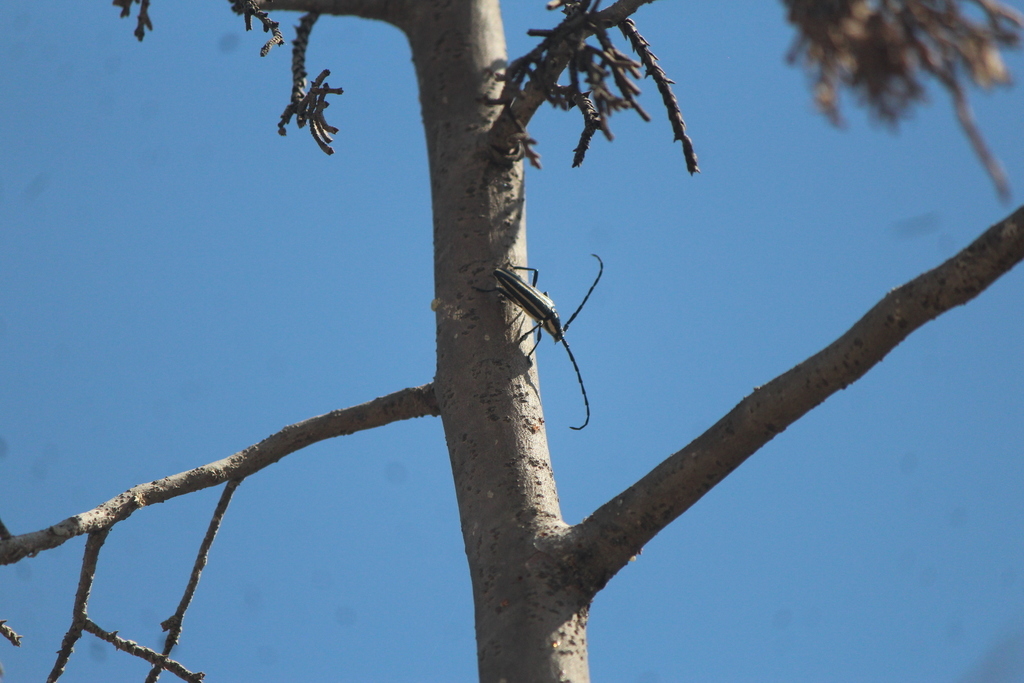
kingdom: Animalia
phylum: Arthropoda
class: Insecta
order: Coleoptera
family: Cerambycidae
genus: Sphaenothecus
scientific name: Sphaenothecus trilineatus
